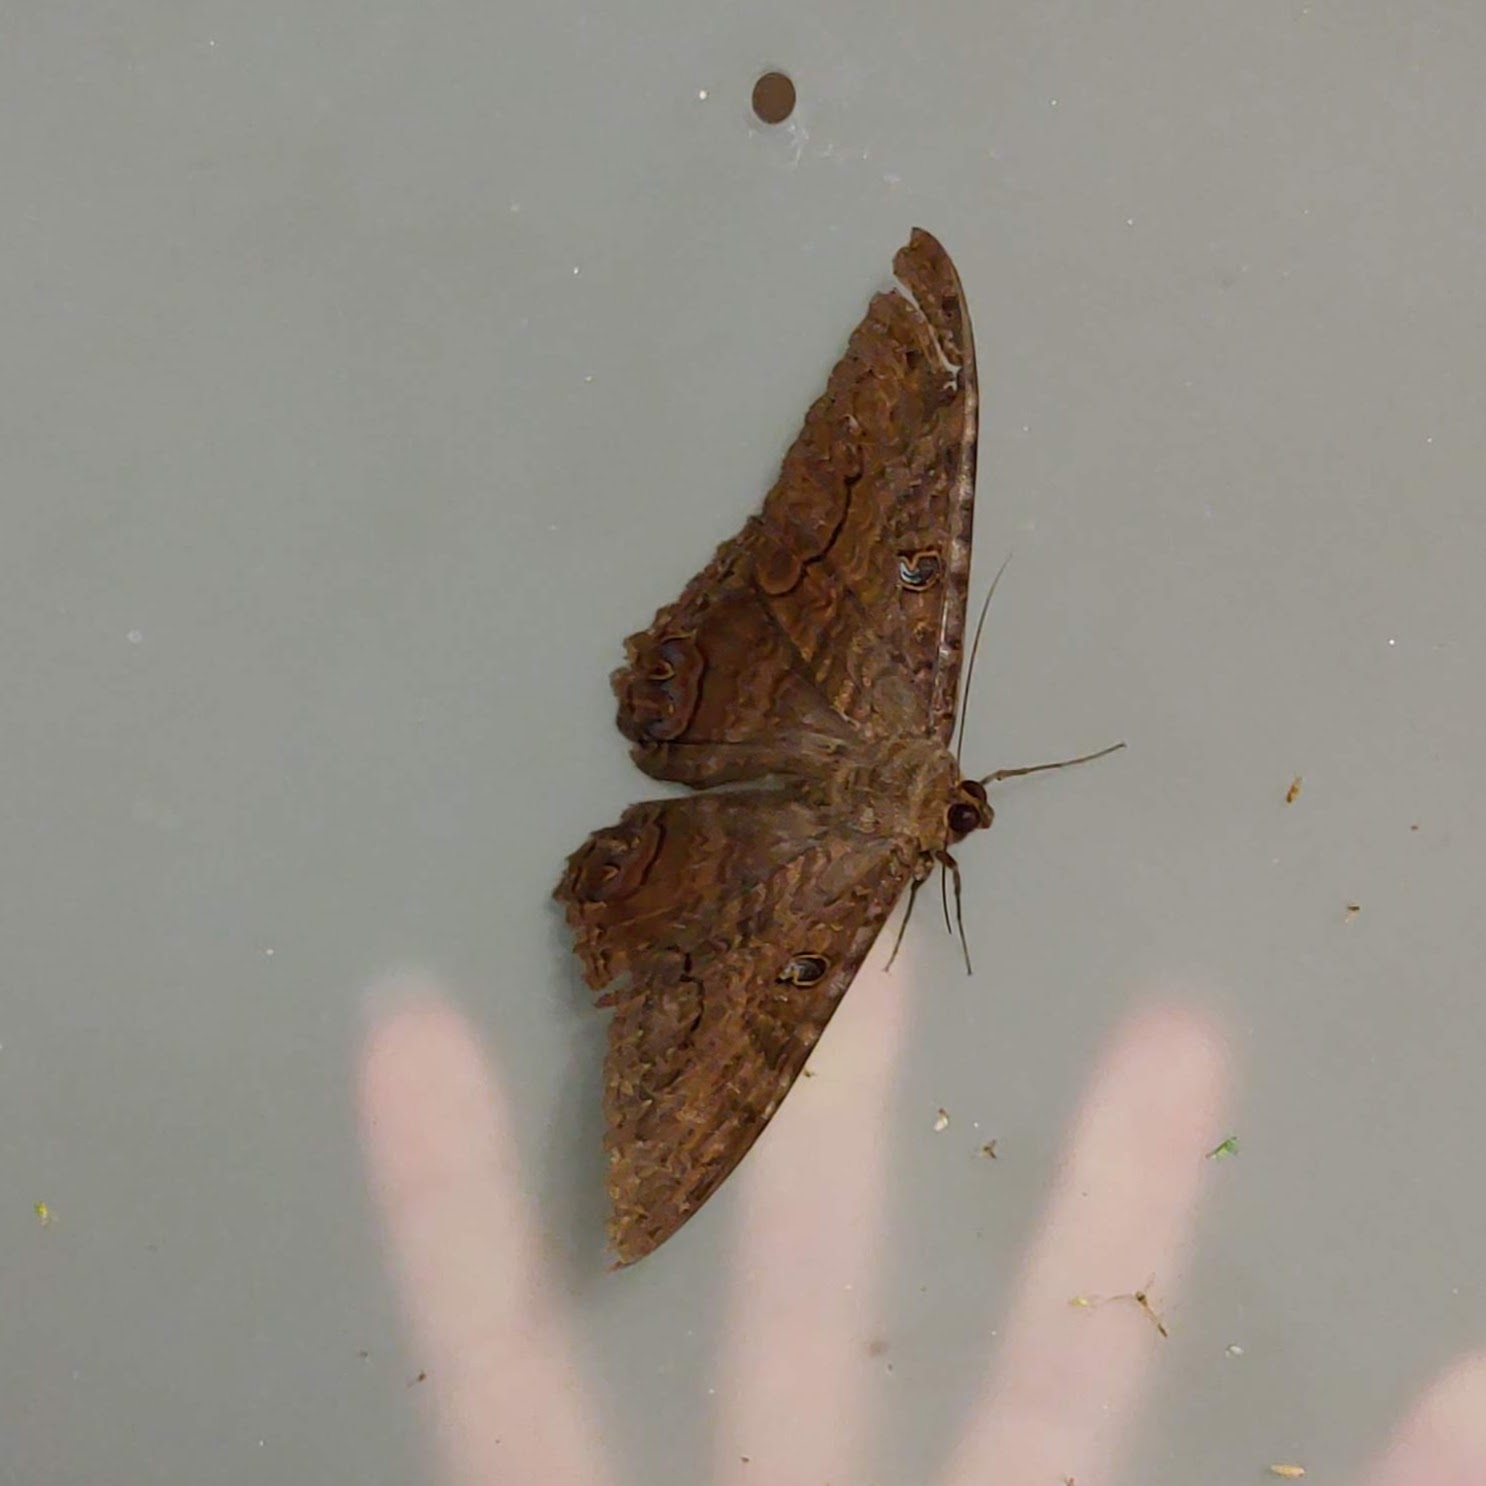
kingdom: Animalia
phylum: Arthropoda
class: Insecta
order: Lepidoptera
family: Erebidae
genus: Ascalapha
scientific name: Ascalapha odorata
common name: Black witch
